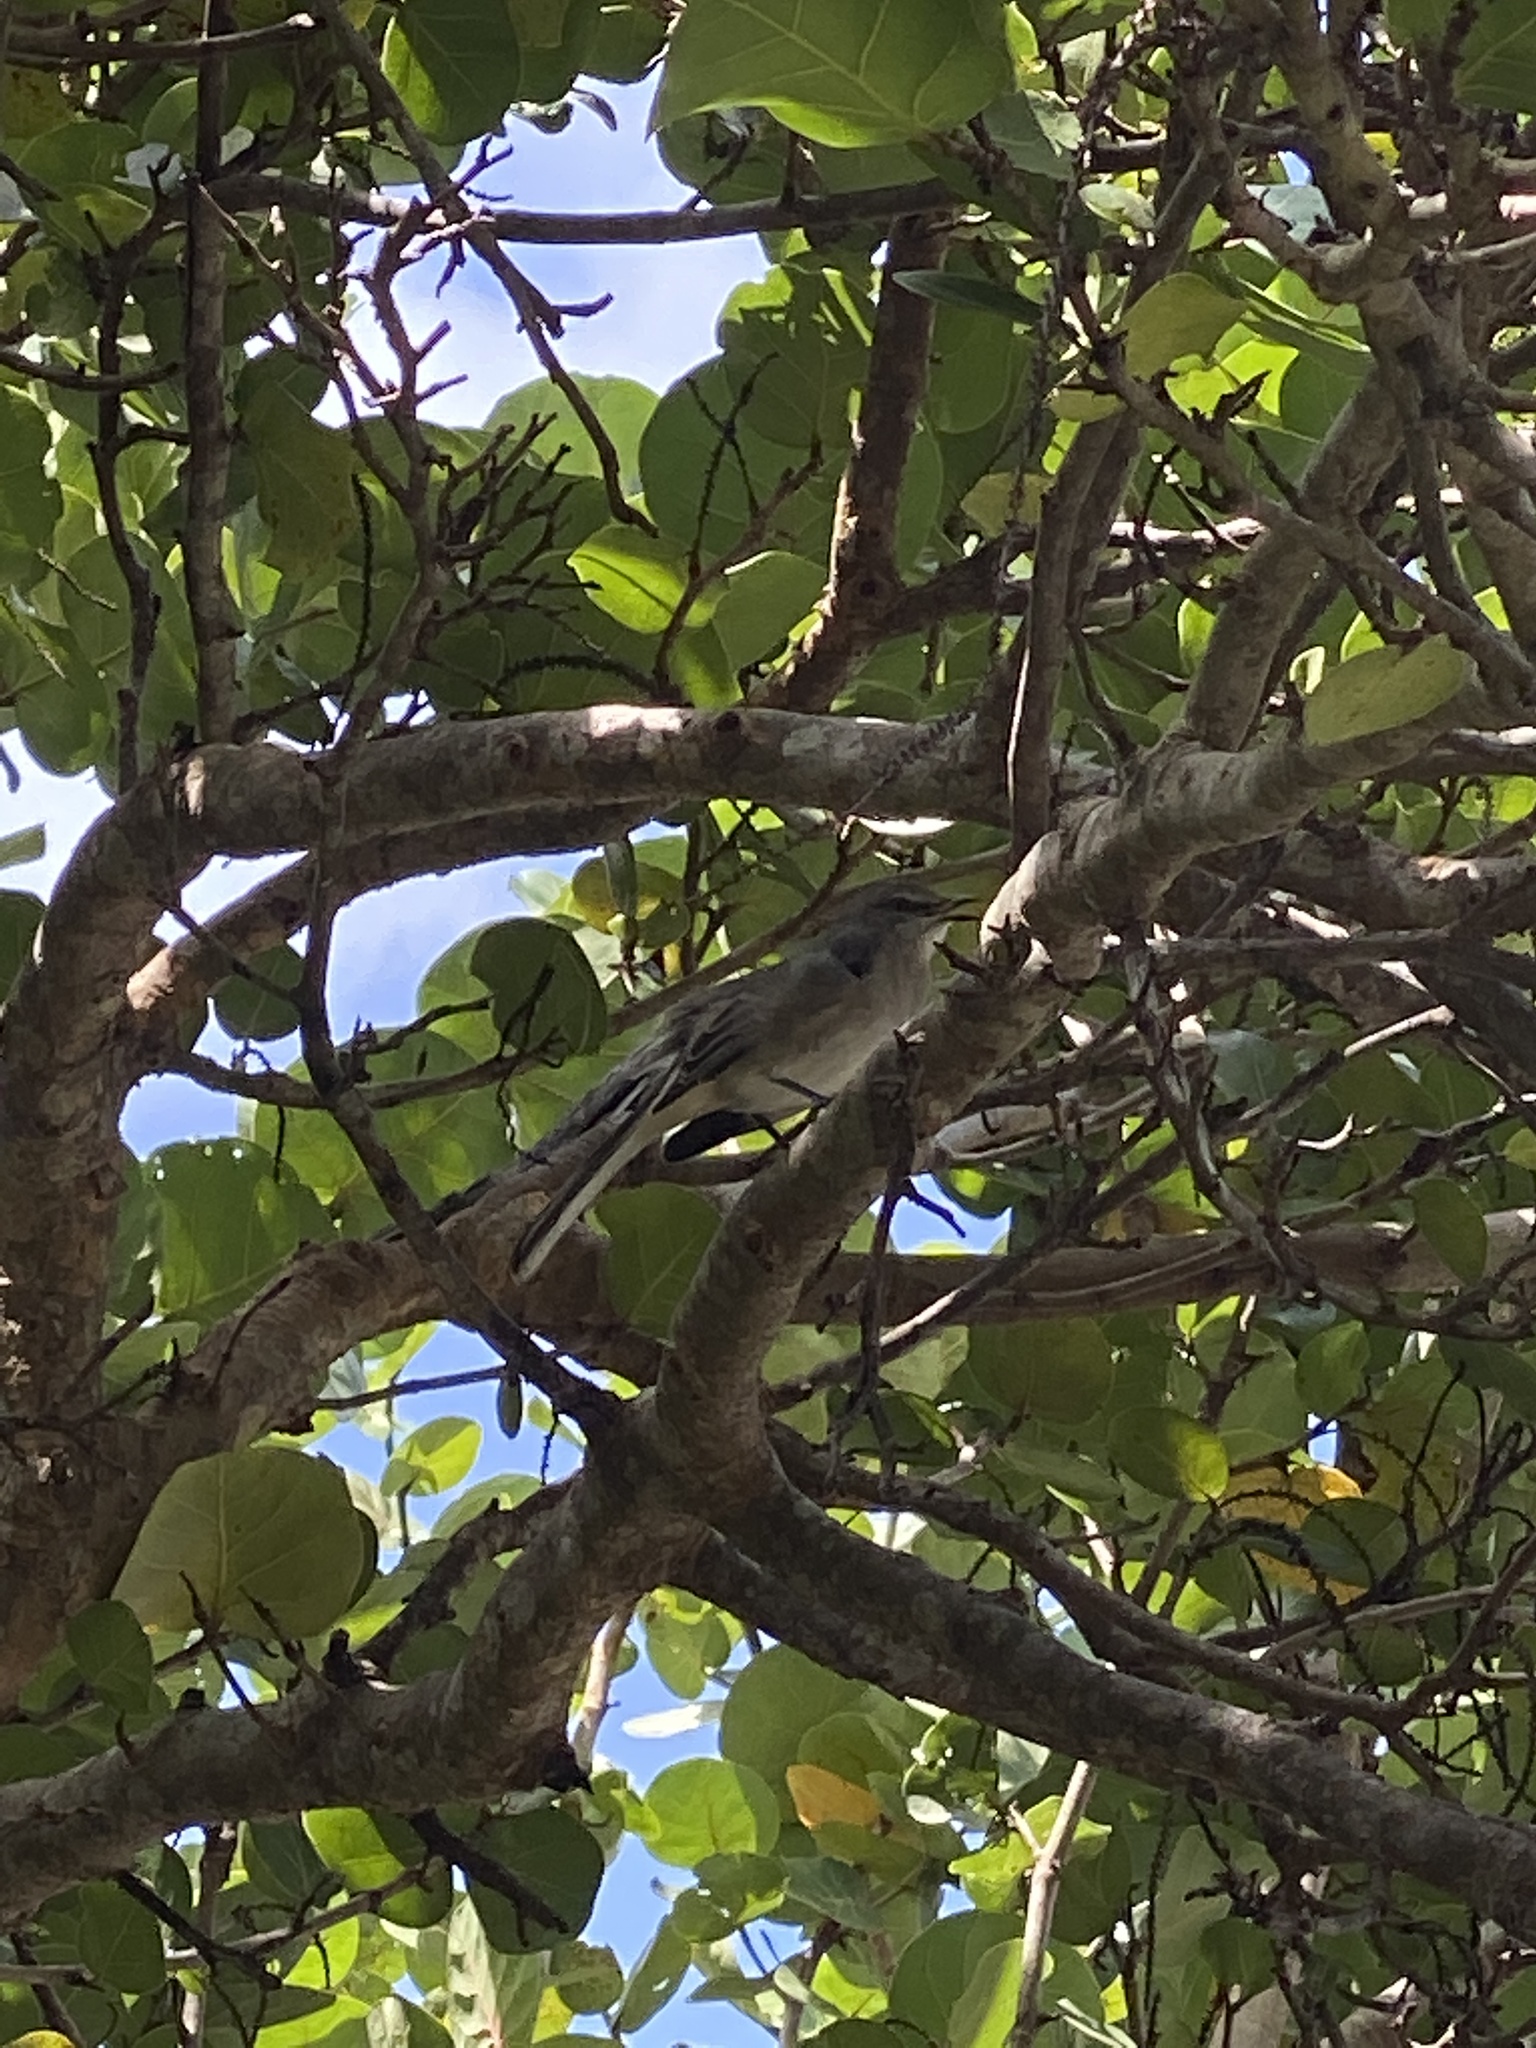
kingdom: Animalia
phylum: Chordata
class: Aves
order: Passeriformes
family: Mimidae
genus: Mimus
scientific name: Mimus polyglottos
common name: Northern mockingbird
